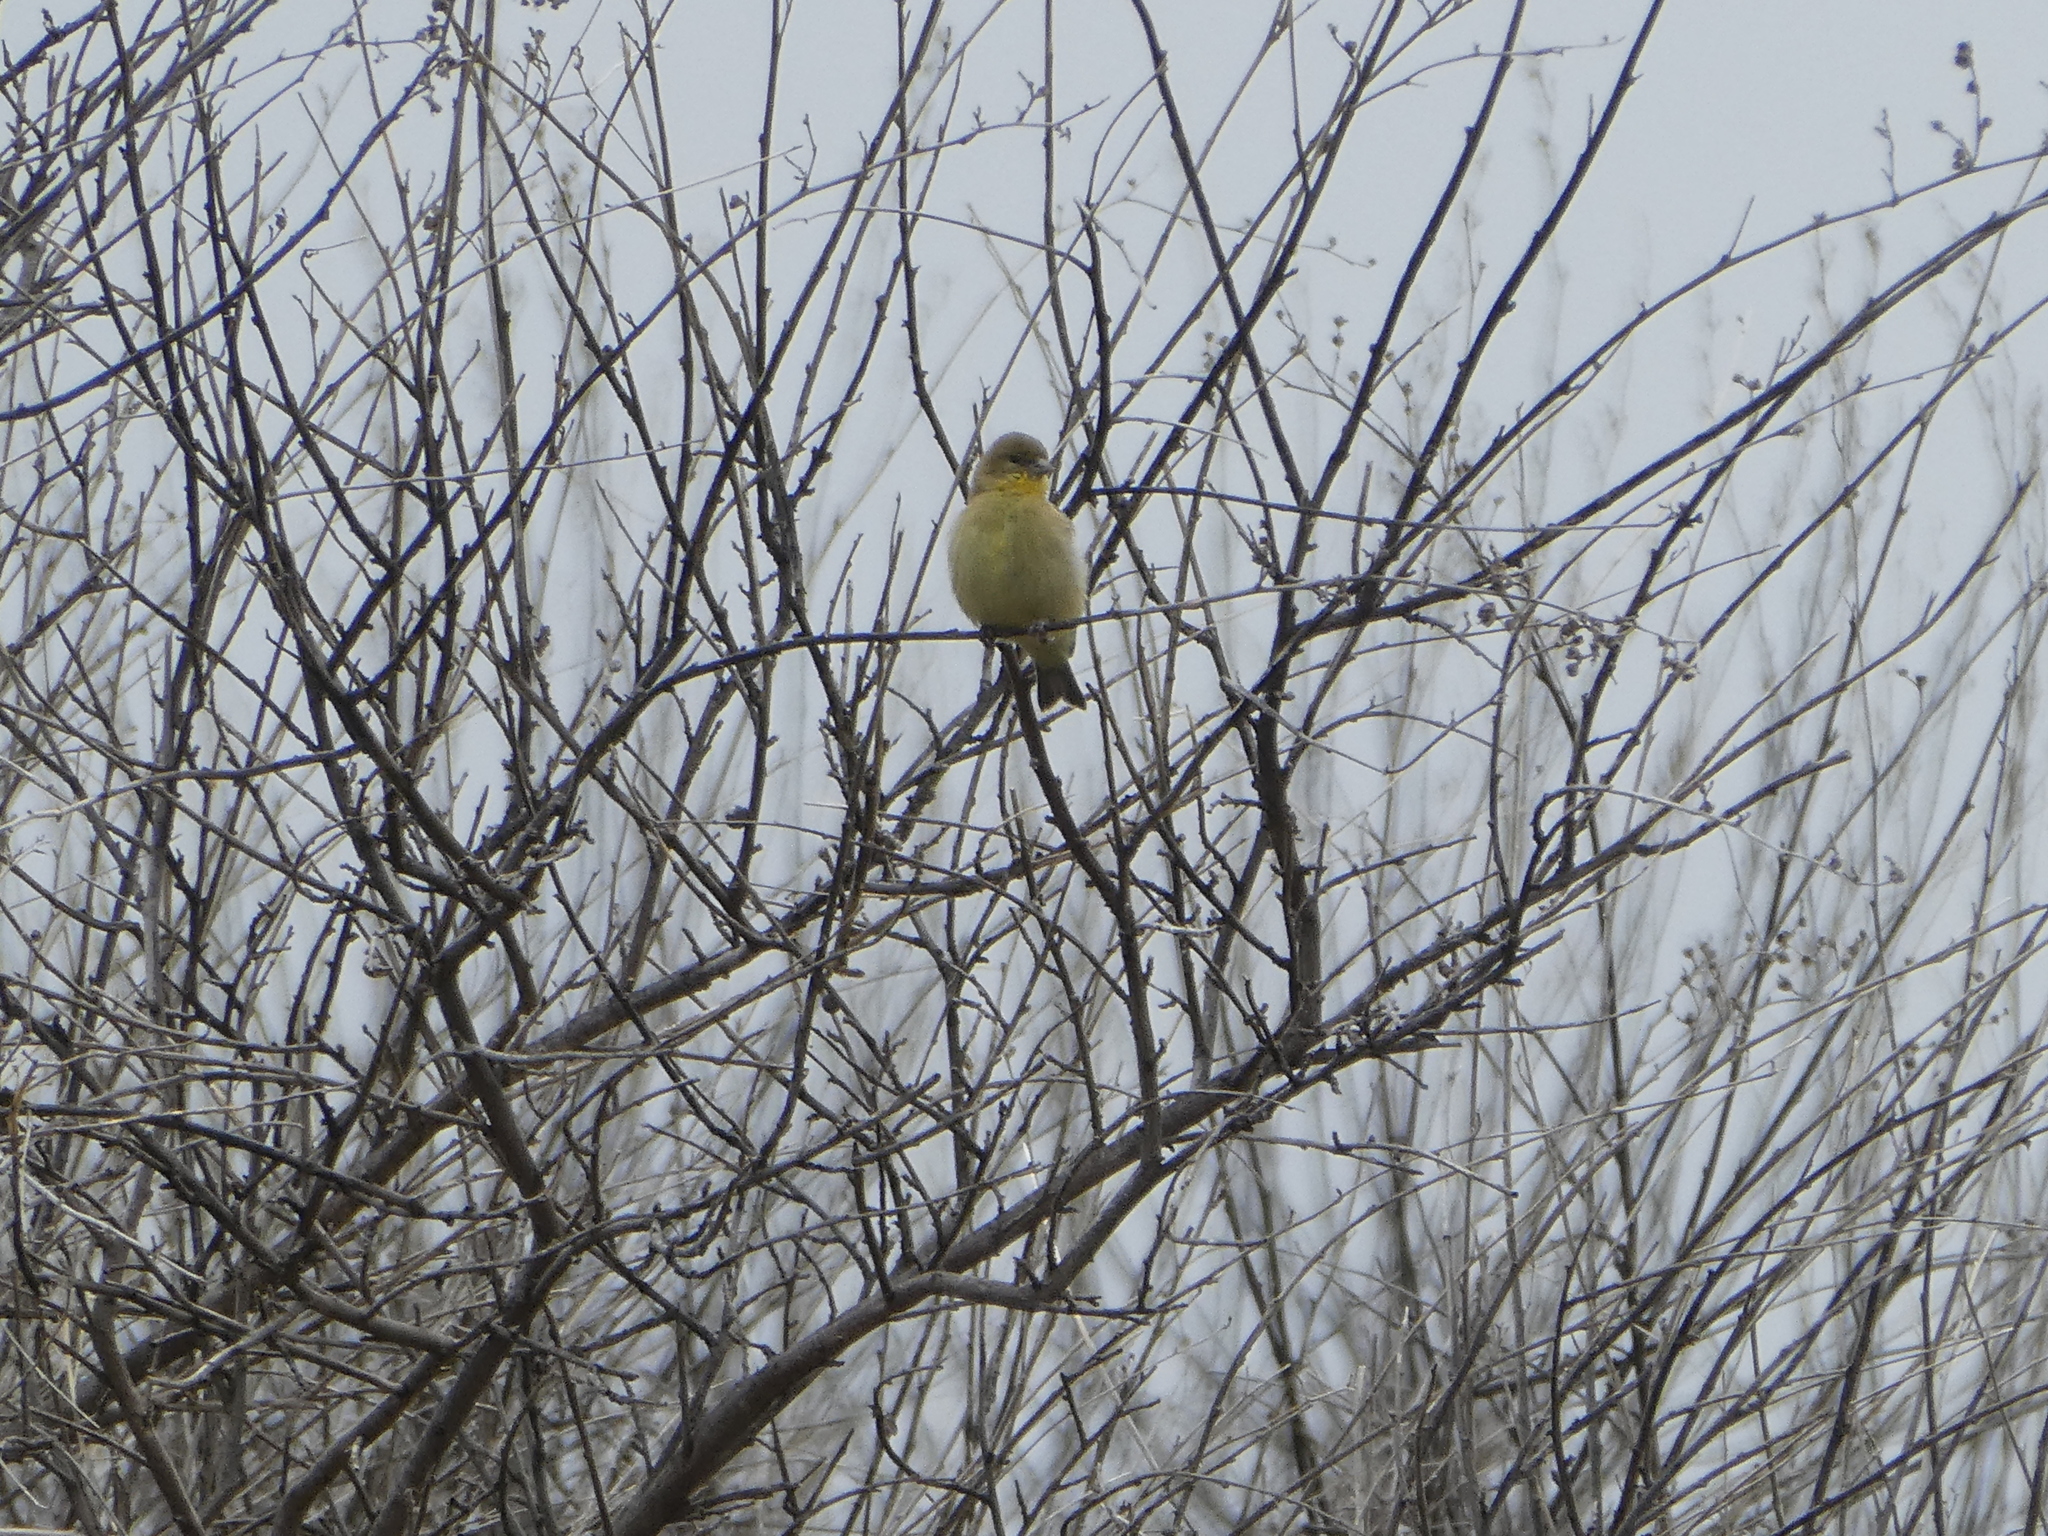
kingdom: Animalia
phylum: Chordata
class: Aves
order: Passeriformes
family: Fringillidae
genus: Spinus
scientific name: Spinus psaltria
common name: Lesser goldfinch
